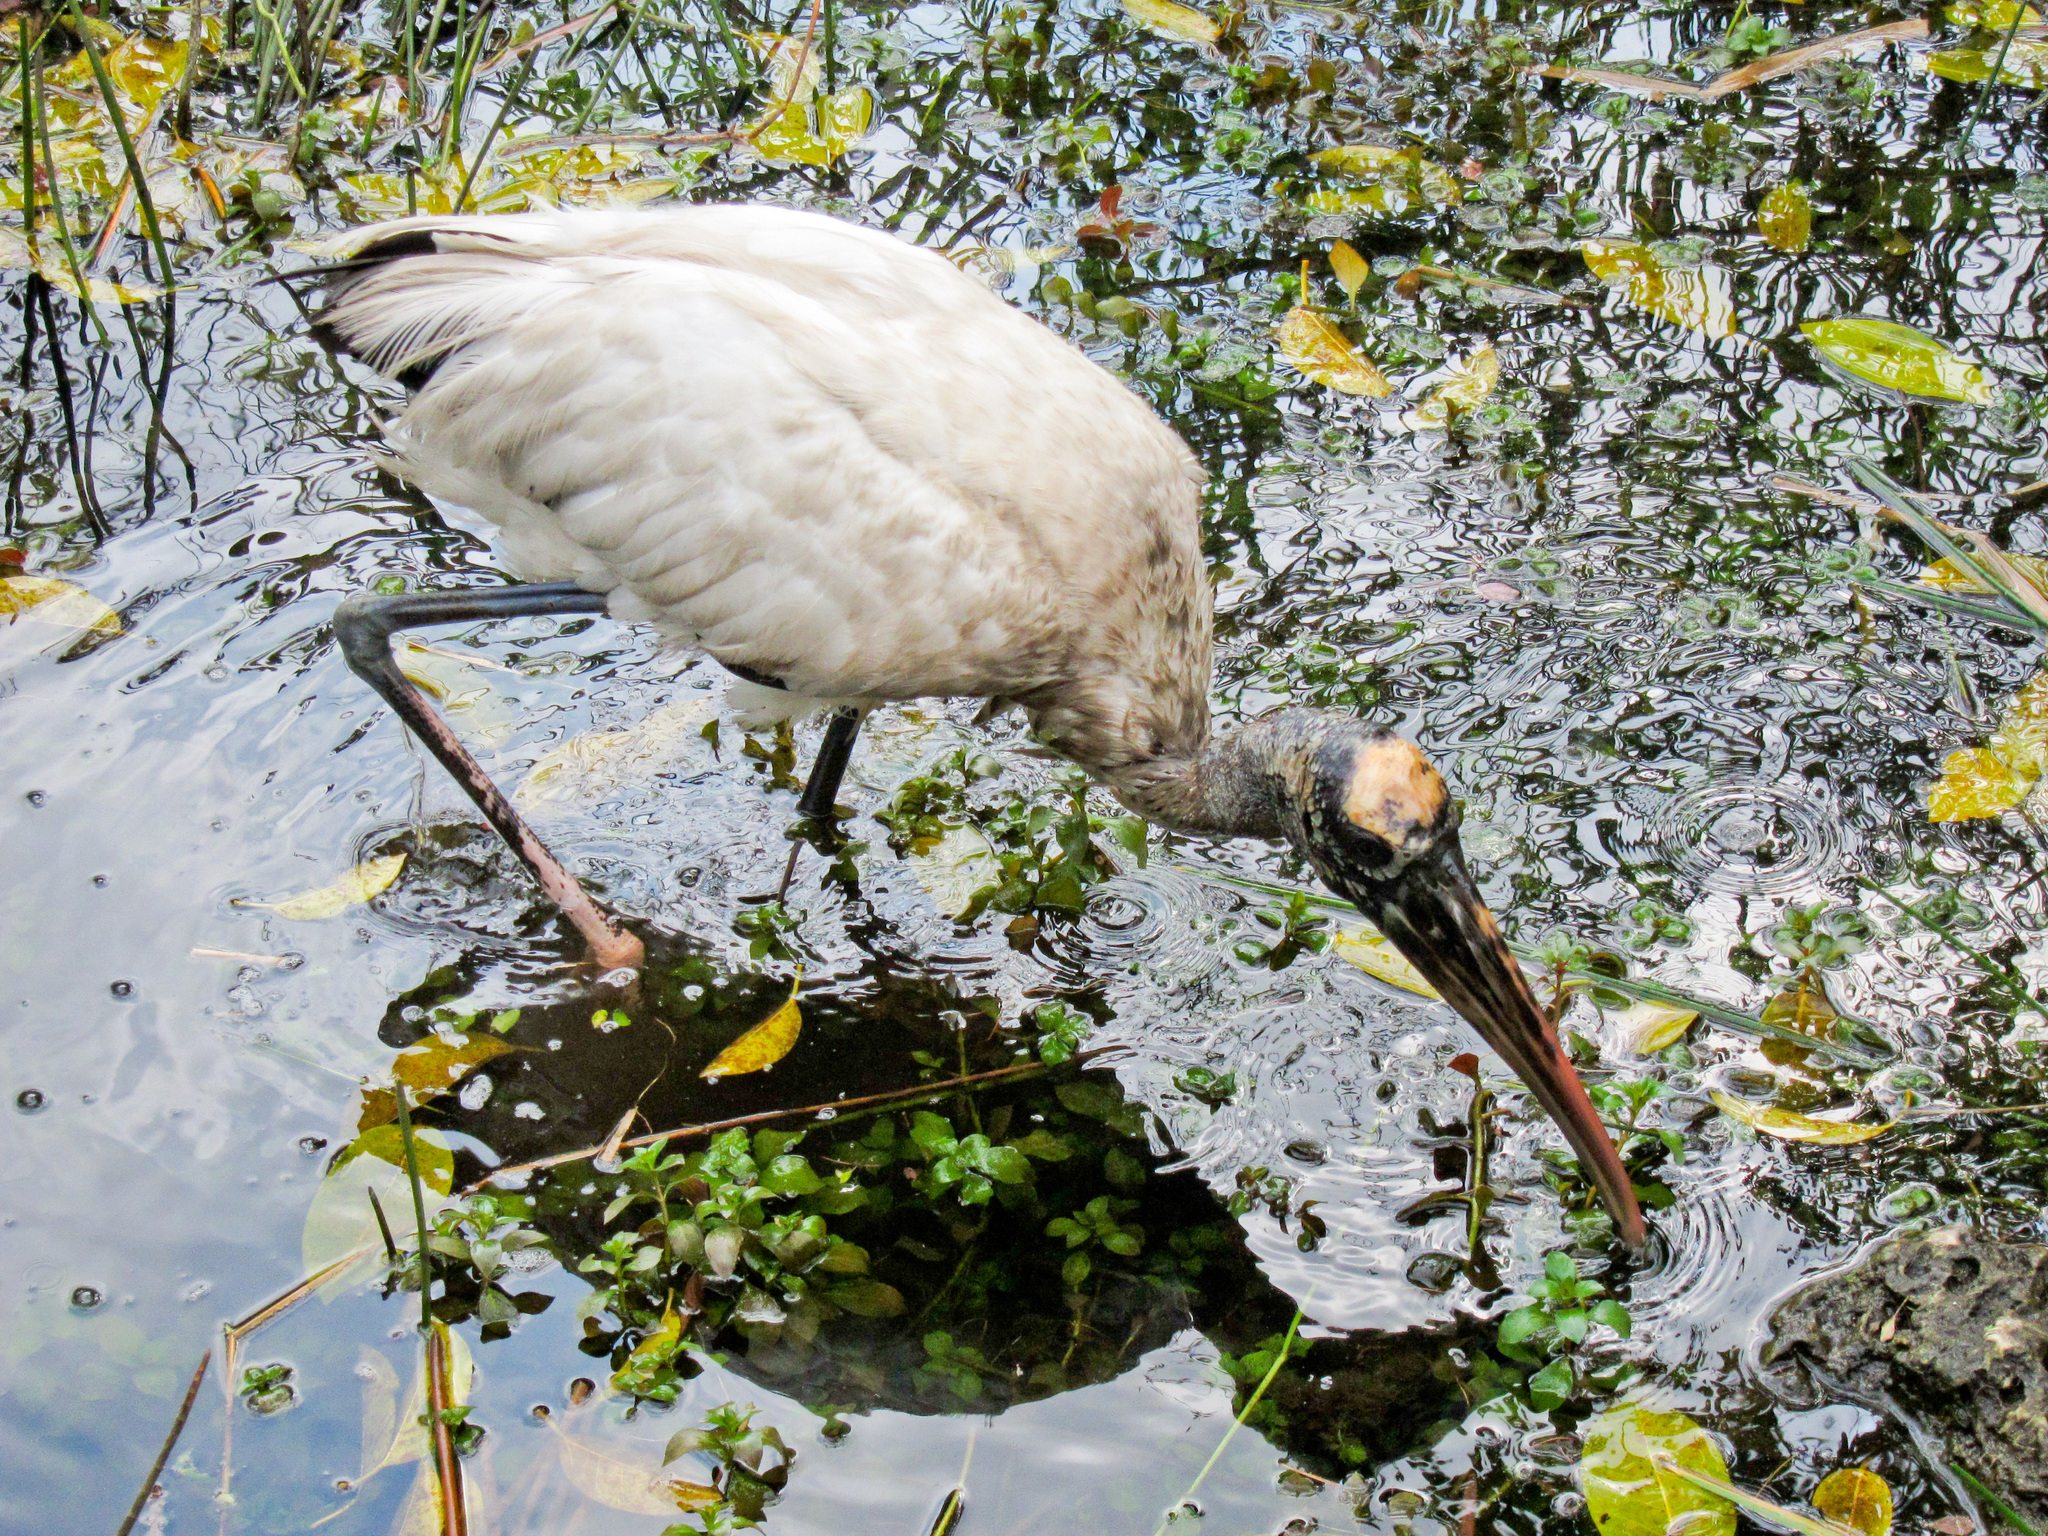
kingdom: Animalia
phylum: Chordata
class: Aves
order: Ciconiiformes
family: Ciconiidae
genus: Mycteria
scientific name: Mycteria americana
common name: Wood stork
